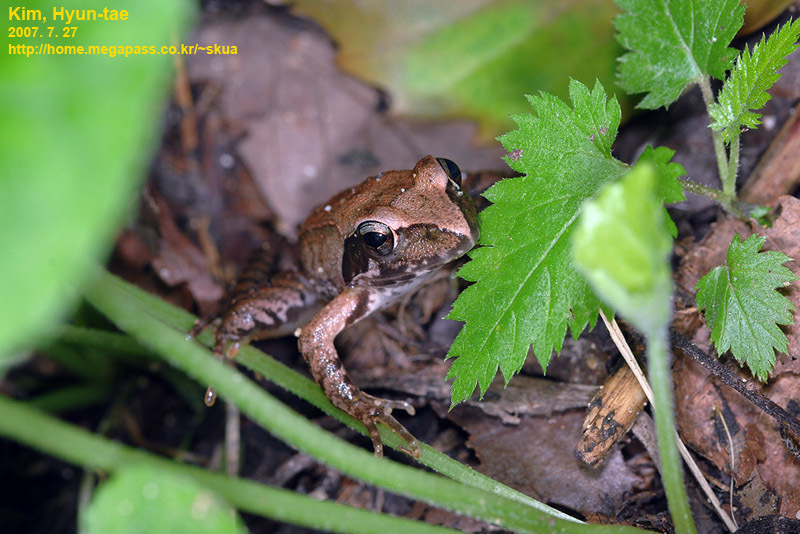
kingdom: Animalia
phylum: Chordata
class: Amphibia
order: Anura
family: Ranidae
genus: Rana
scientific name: Rana uenoi
